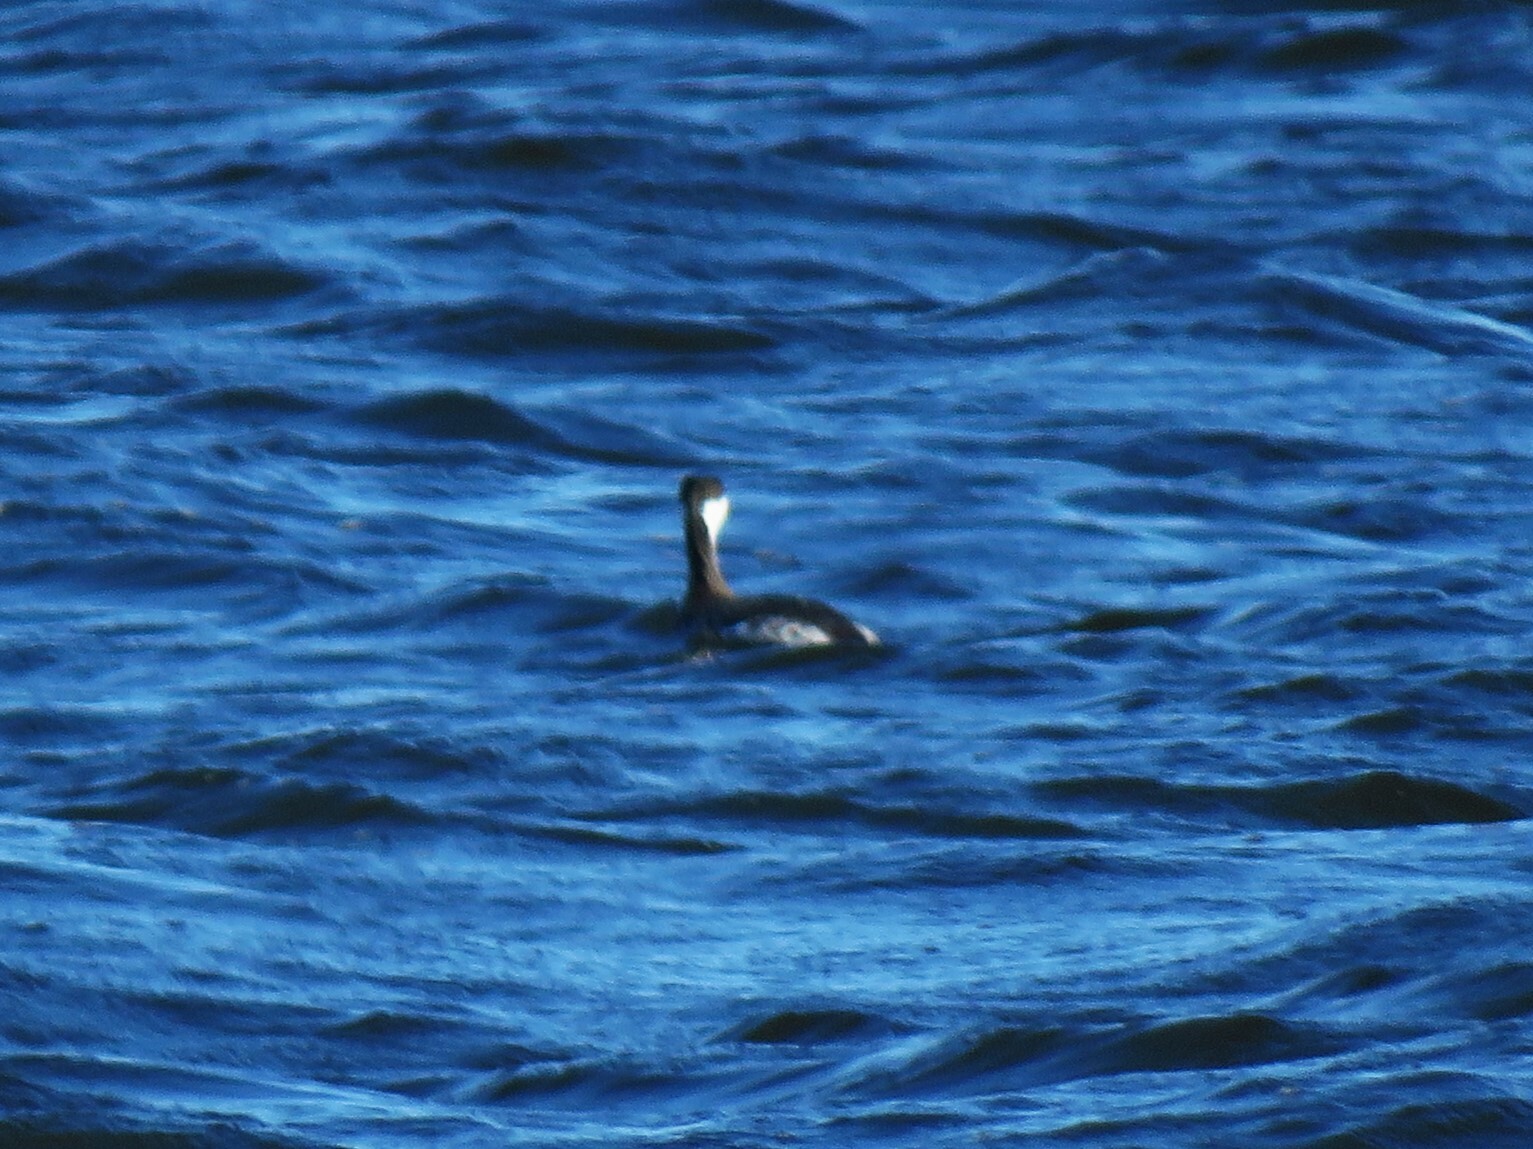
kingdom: Animalia
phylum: Chordata
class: Aves
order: Podicipediformes
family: Podicipedidae
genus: Podiceps
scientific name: Podiceps auritus
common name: Horned grebe
